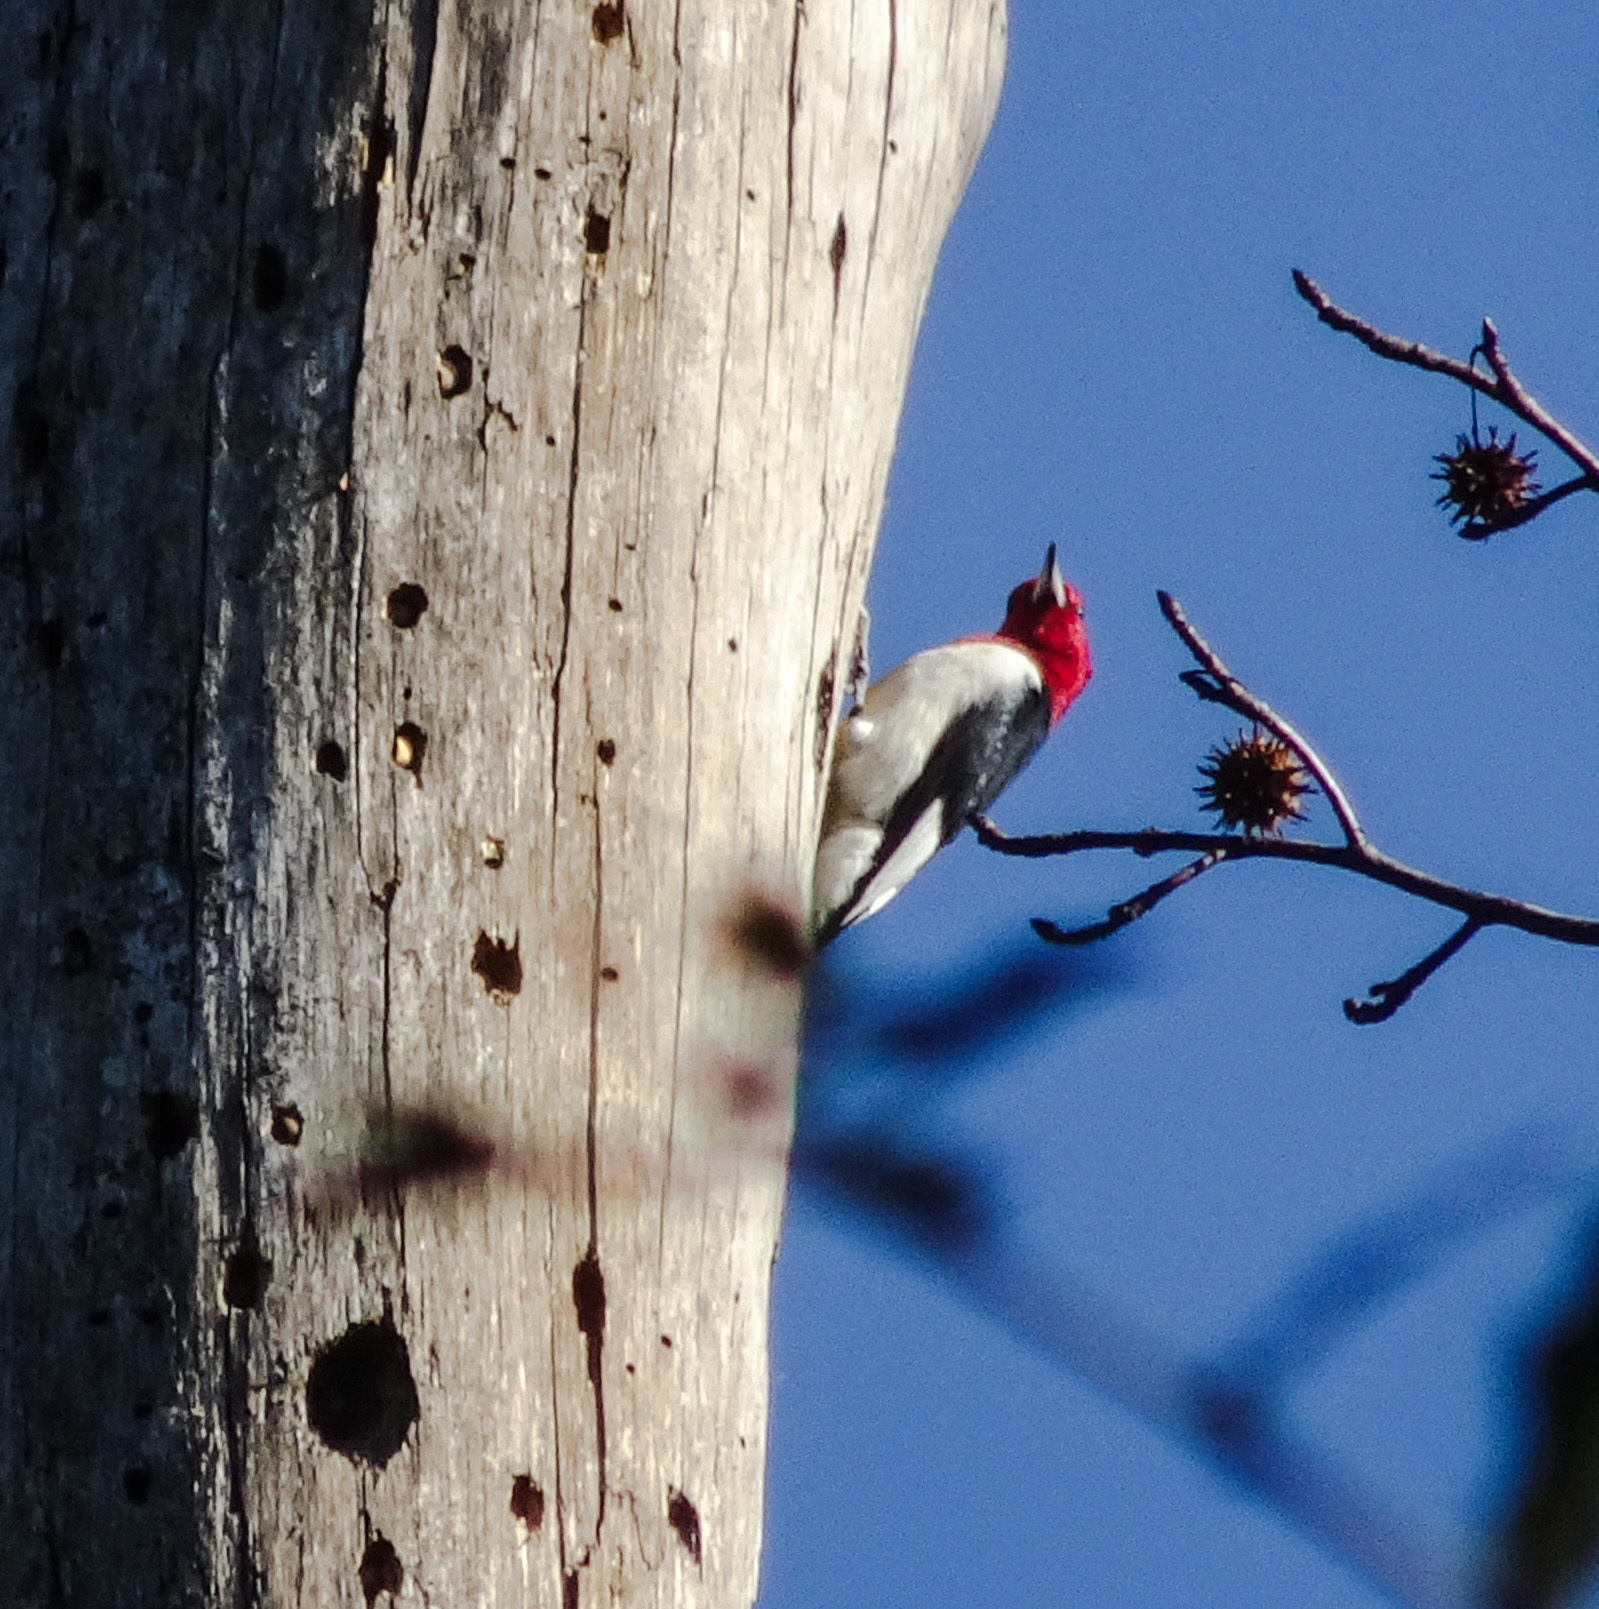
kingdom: Animalia
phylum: Chordata
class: Aves
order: Piciformes
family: Picidae
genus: Melanerpes
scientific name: Melanerpes erythrocephalus
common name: Red-headed woodpecker
